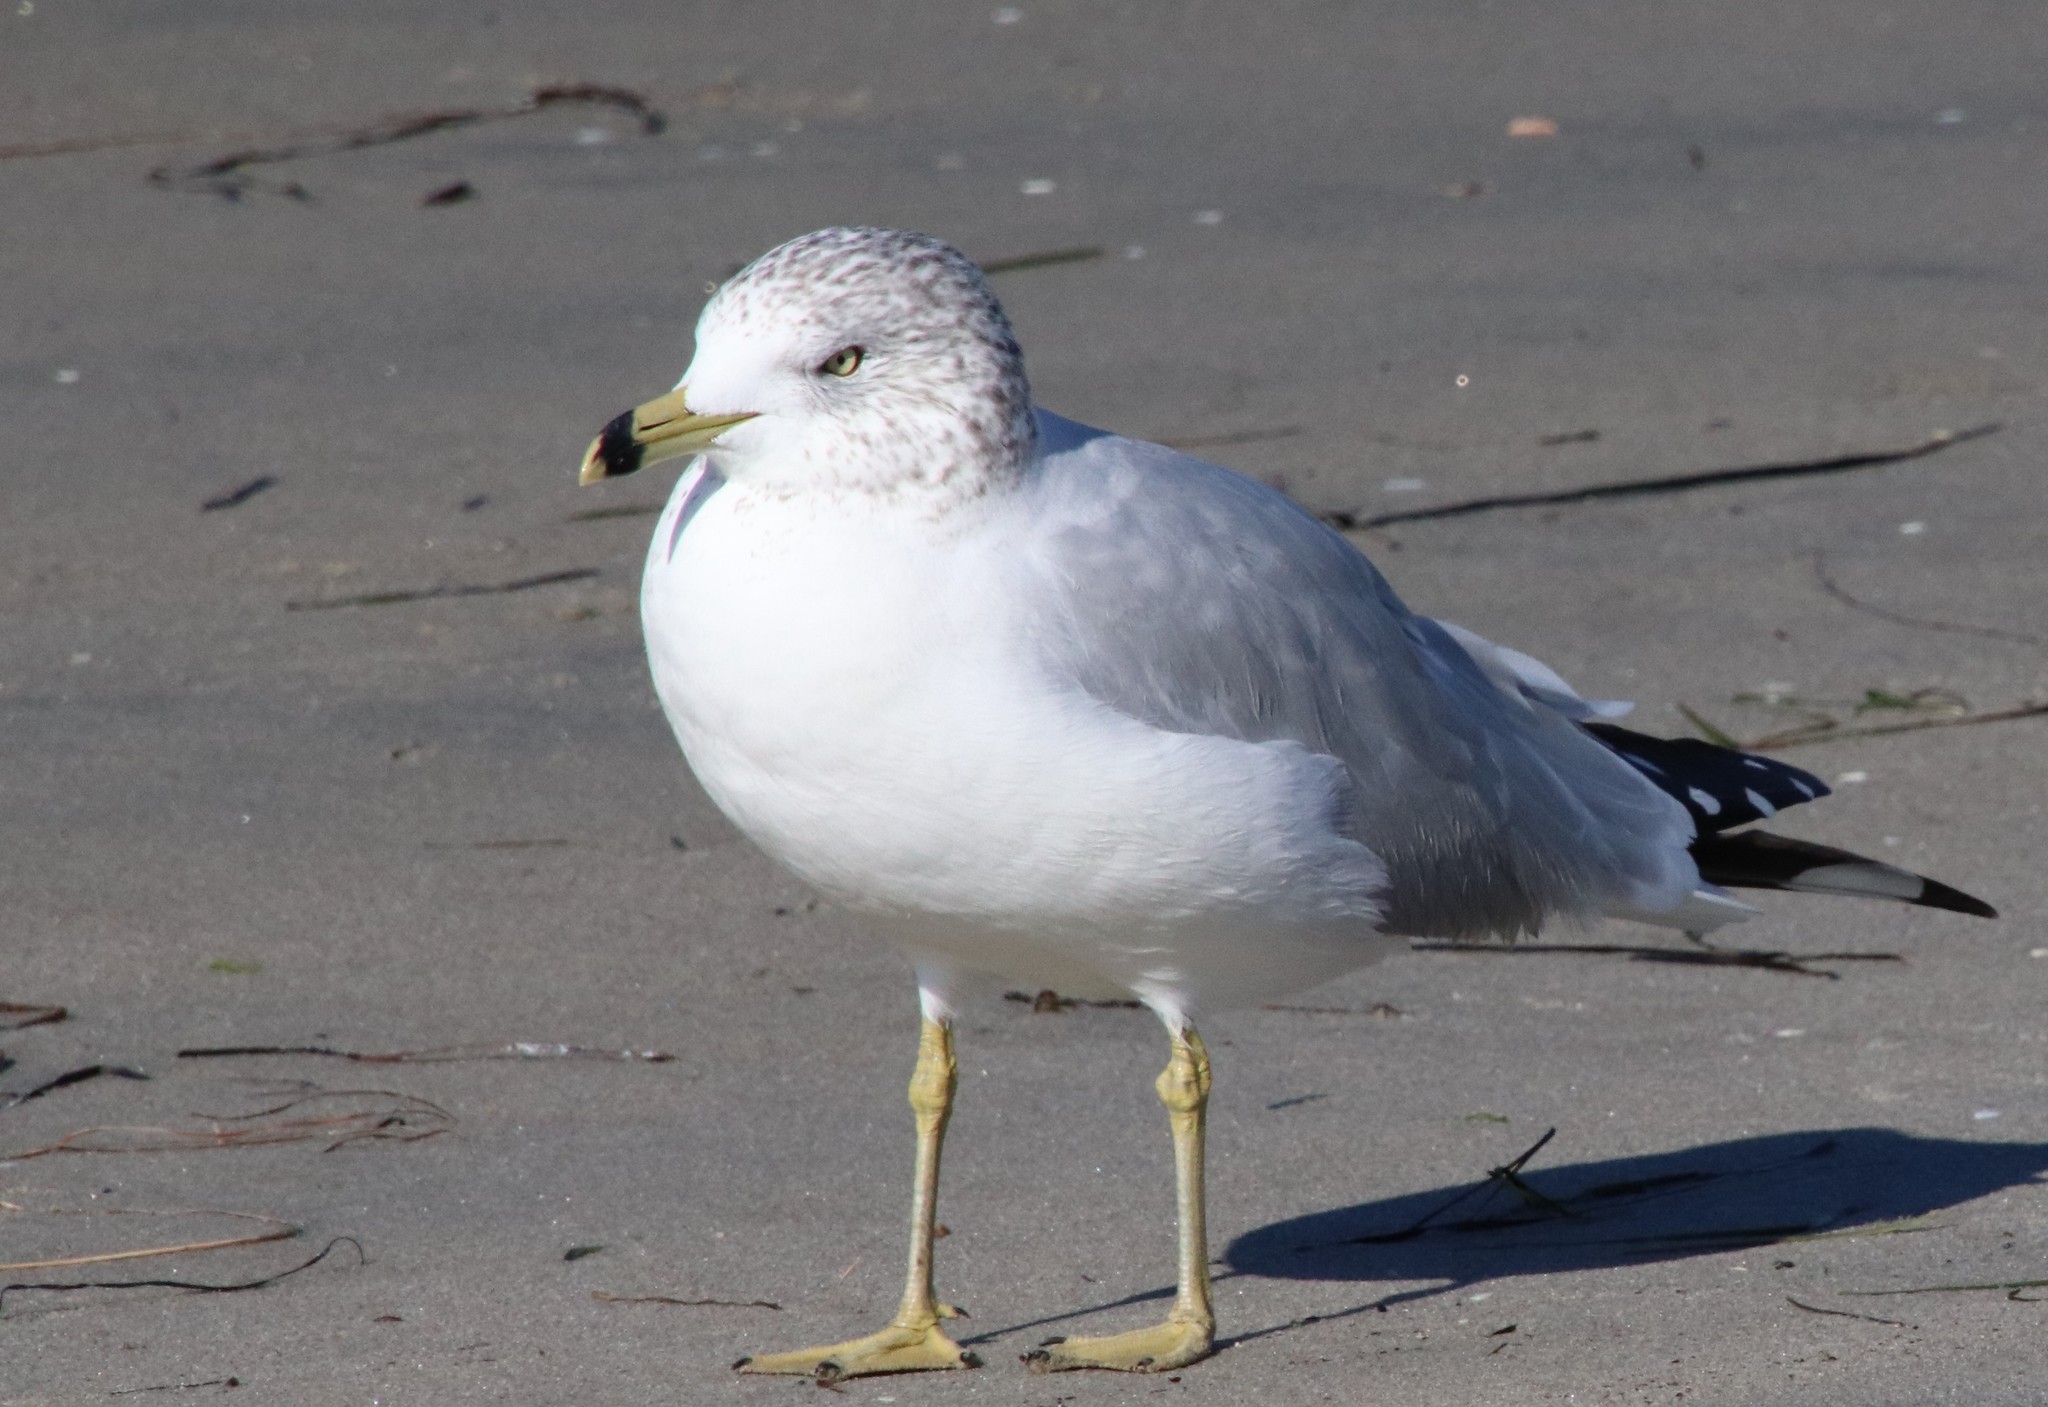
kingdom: Animalia
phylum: Chordata
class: Aves
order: Charadriiformes
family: Laridae
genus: Larus
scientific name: Larus delawarensis
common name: Ring-billed gull
